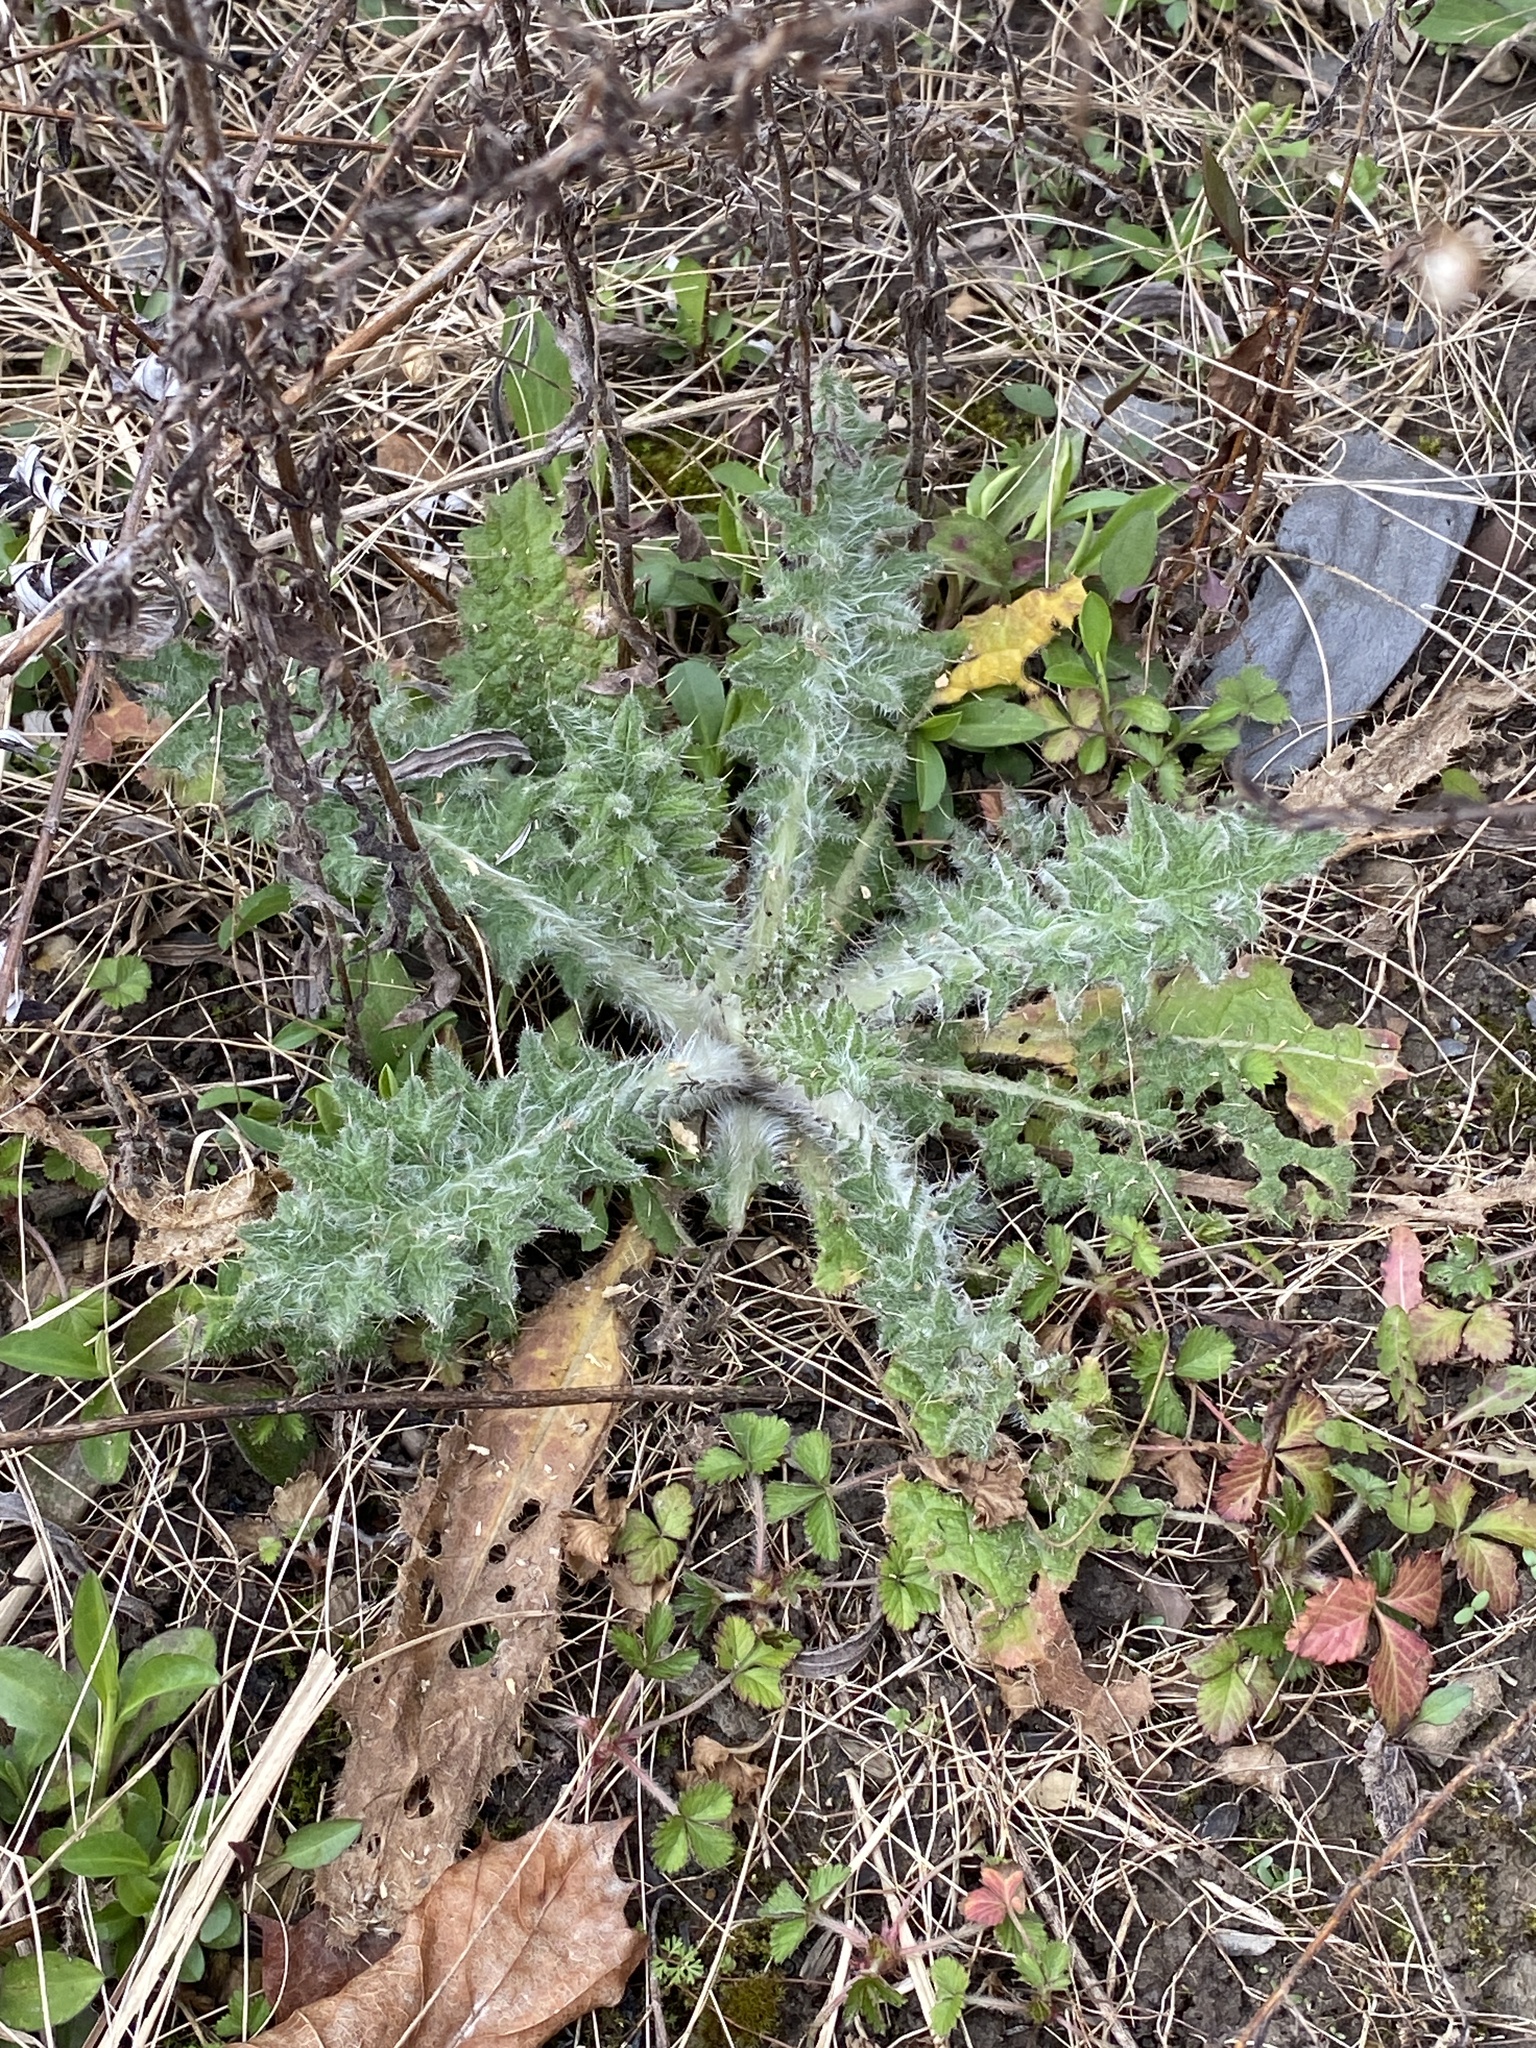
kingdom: Plantae
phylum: Tracheophyta
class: Magnoliopsida
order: Asterales
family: Asteraceae
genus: Cirsium
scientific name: Cirsium vulgare
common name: Bull thistle
